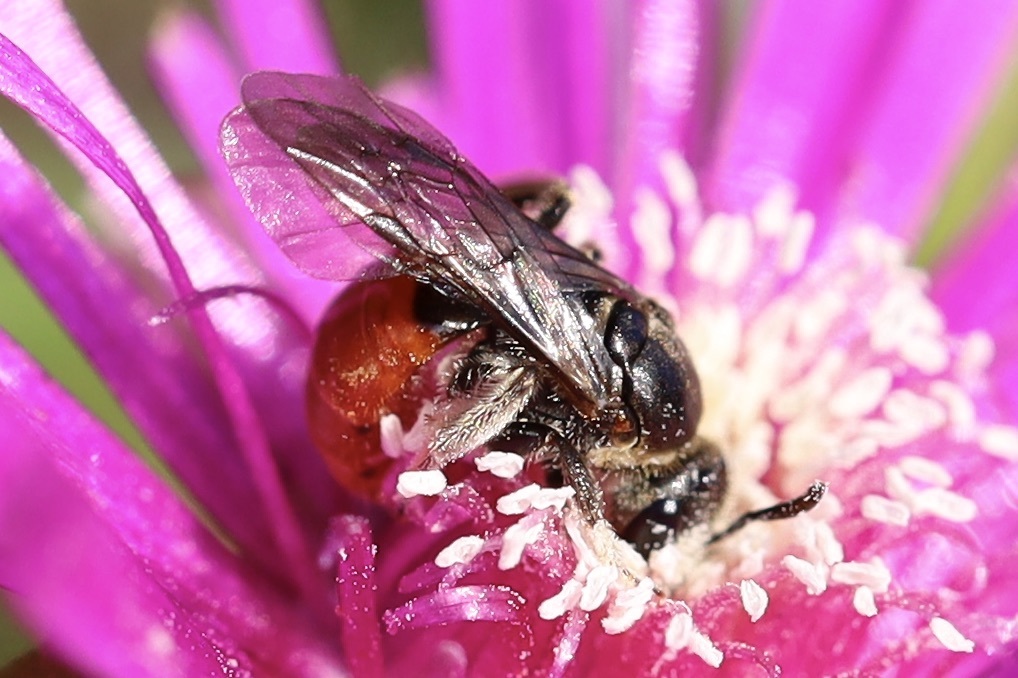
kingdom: Animalia
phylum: Arthropoda
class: Insecta
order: Hymenoptera
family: Halictidae
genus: Lasioglossum
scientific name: Lasioglossum ovaliceps
